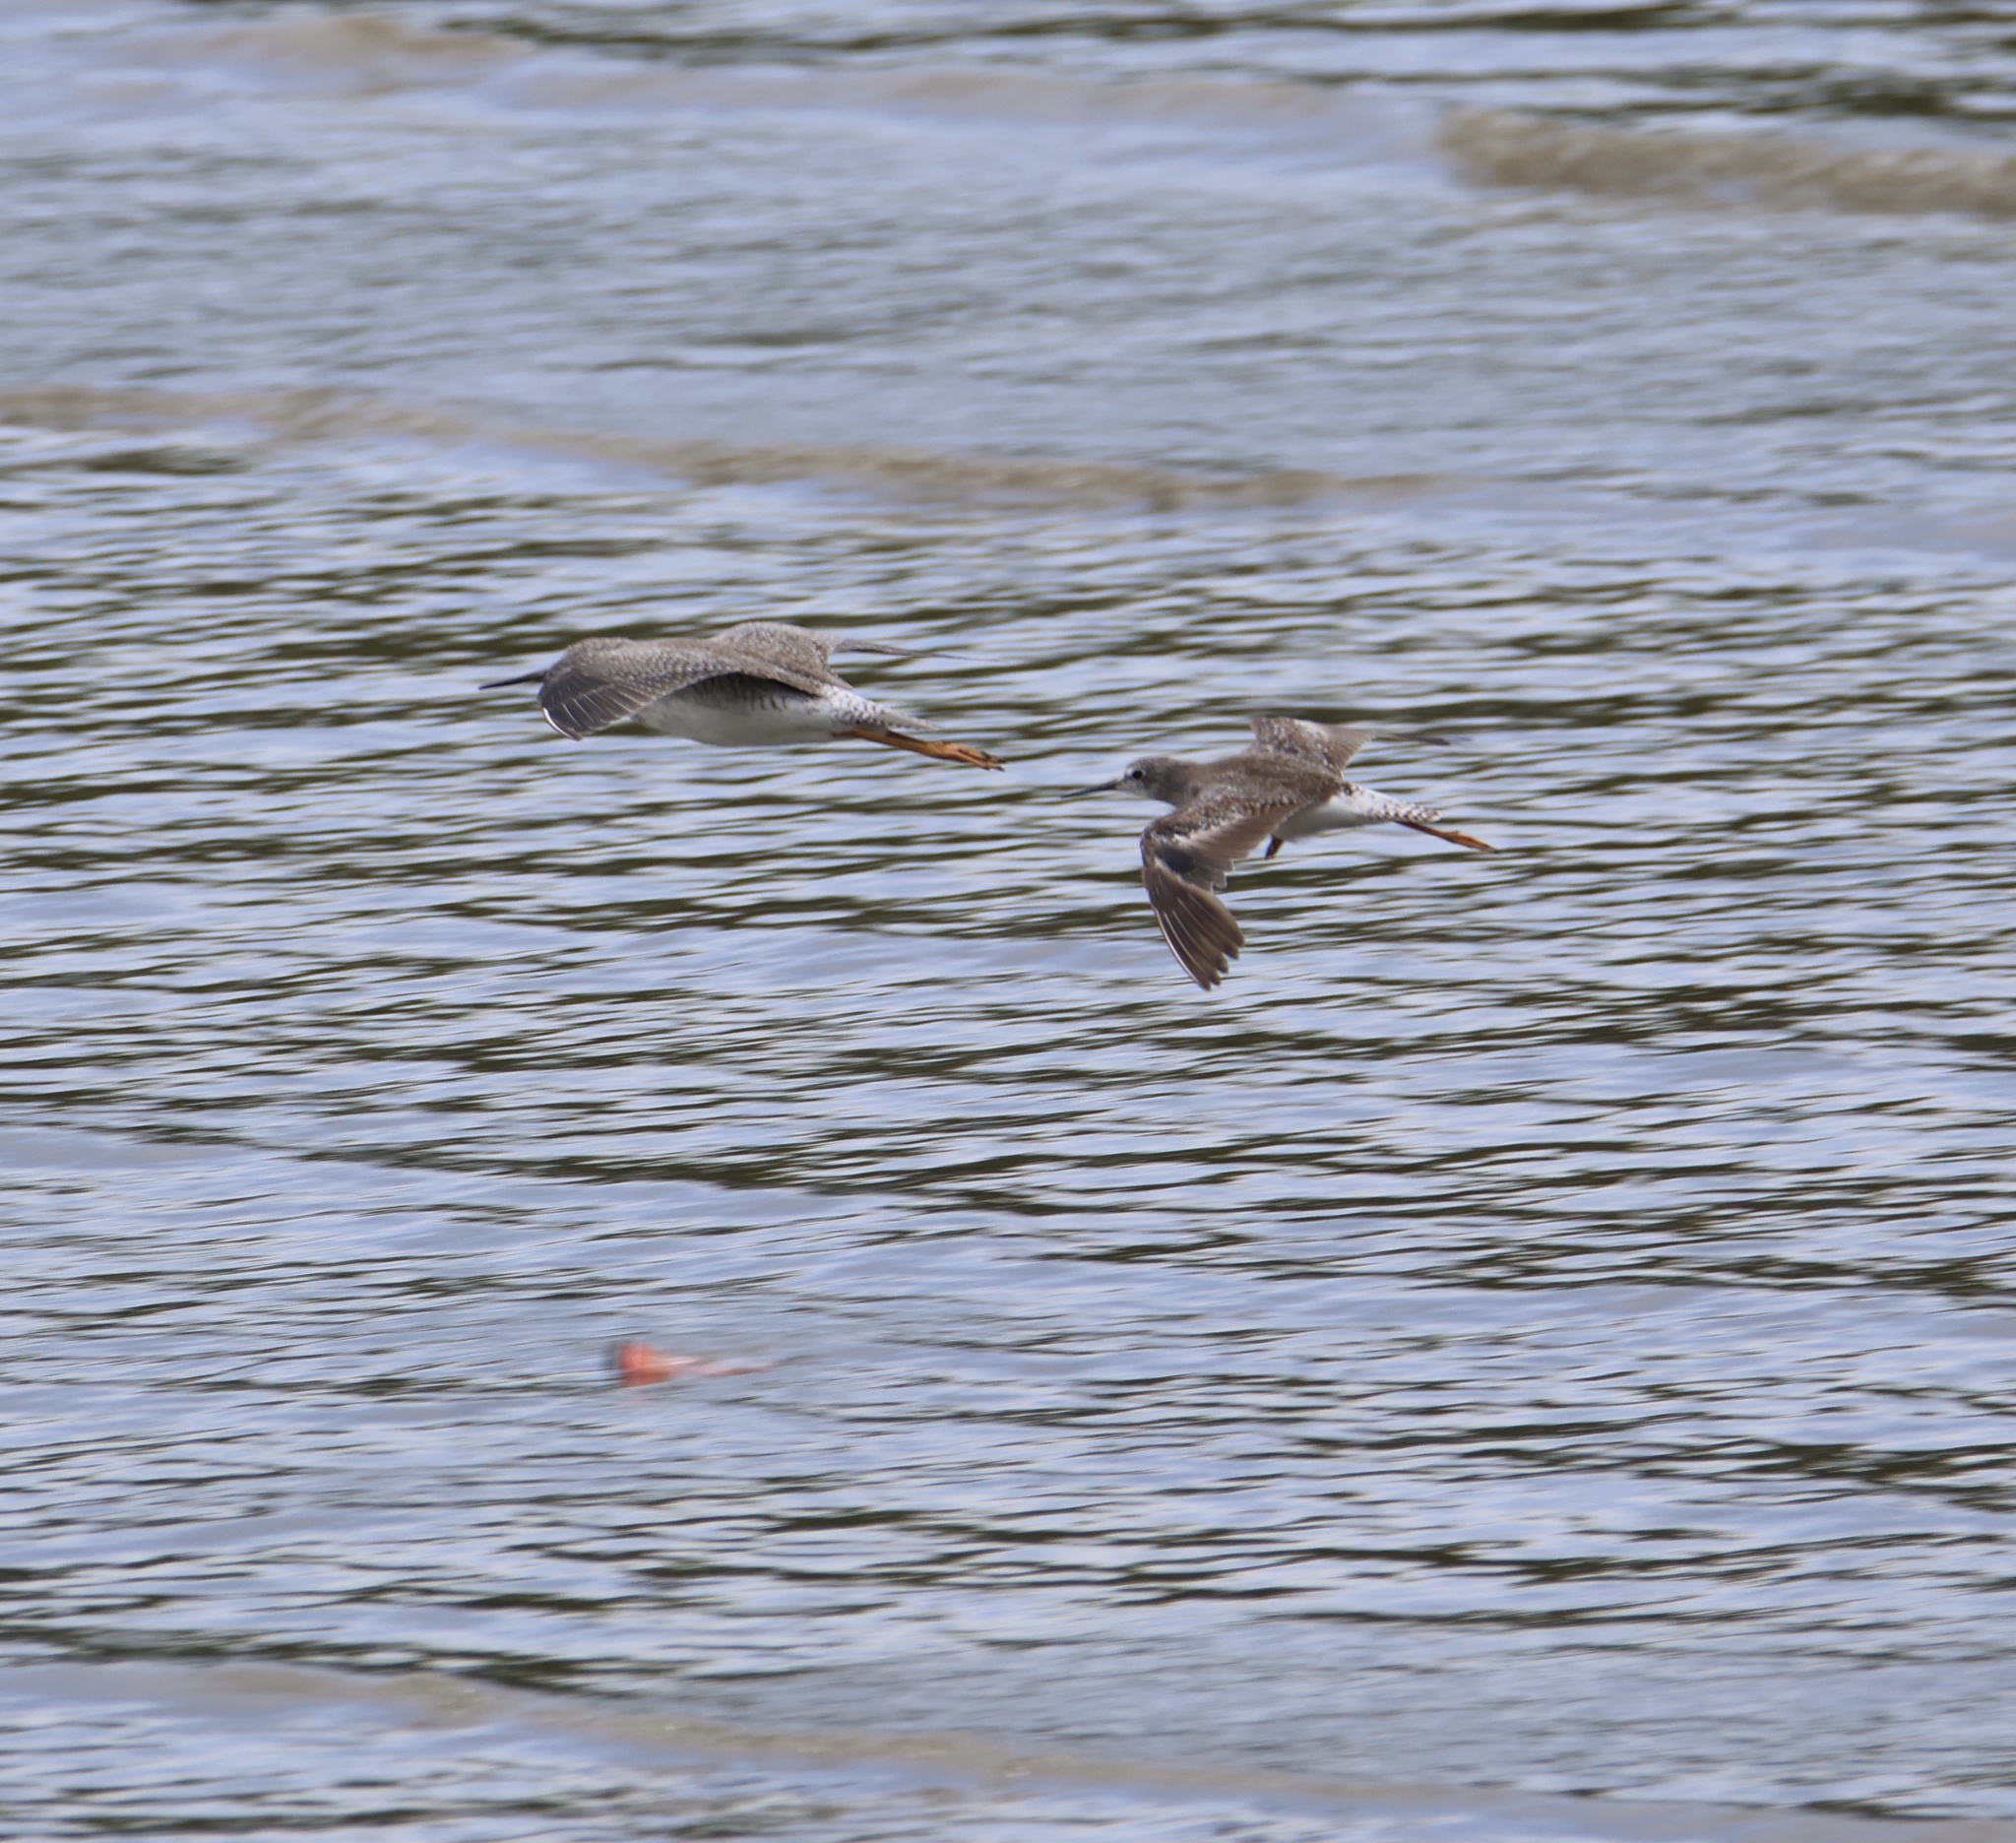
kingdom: Animalia
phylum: Chordata
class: Aves
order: Charadriiformes
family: Scolopacidae
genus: Tringa
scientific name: Tringa flavipes
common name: Lesser yellowlegs
